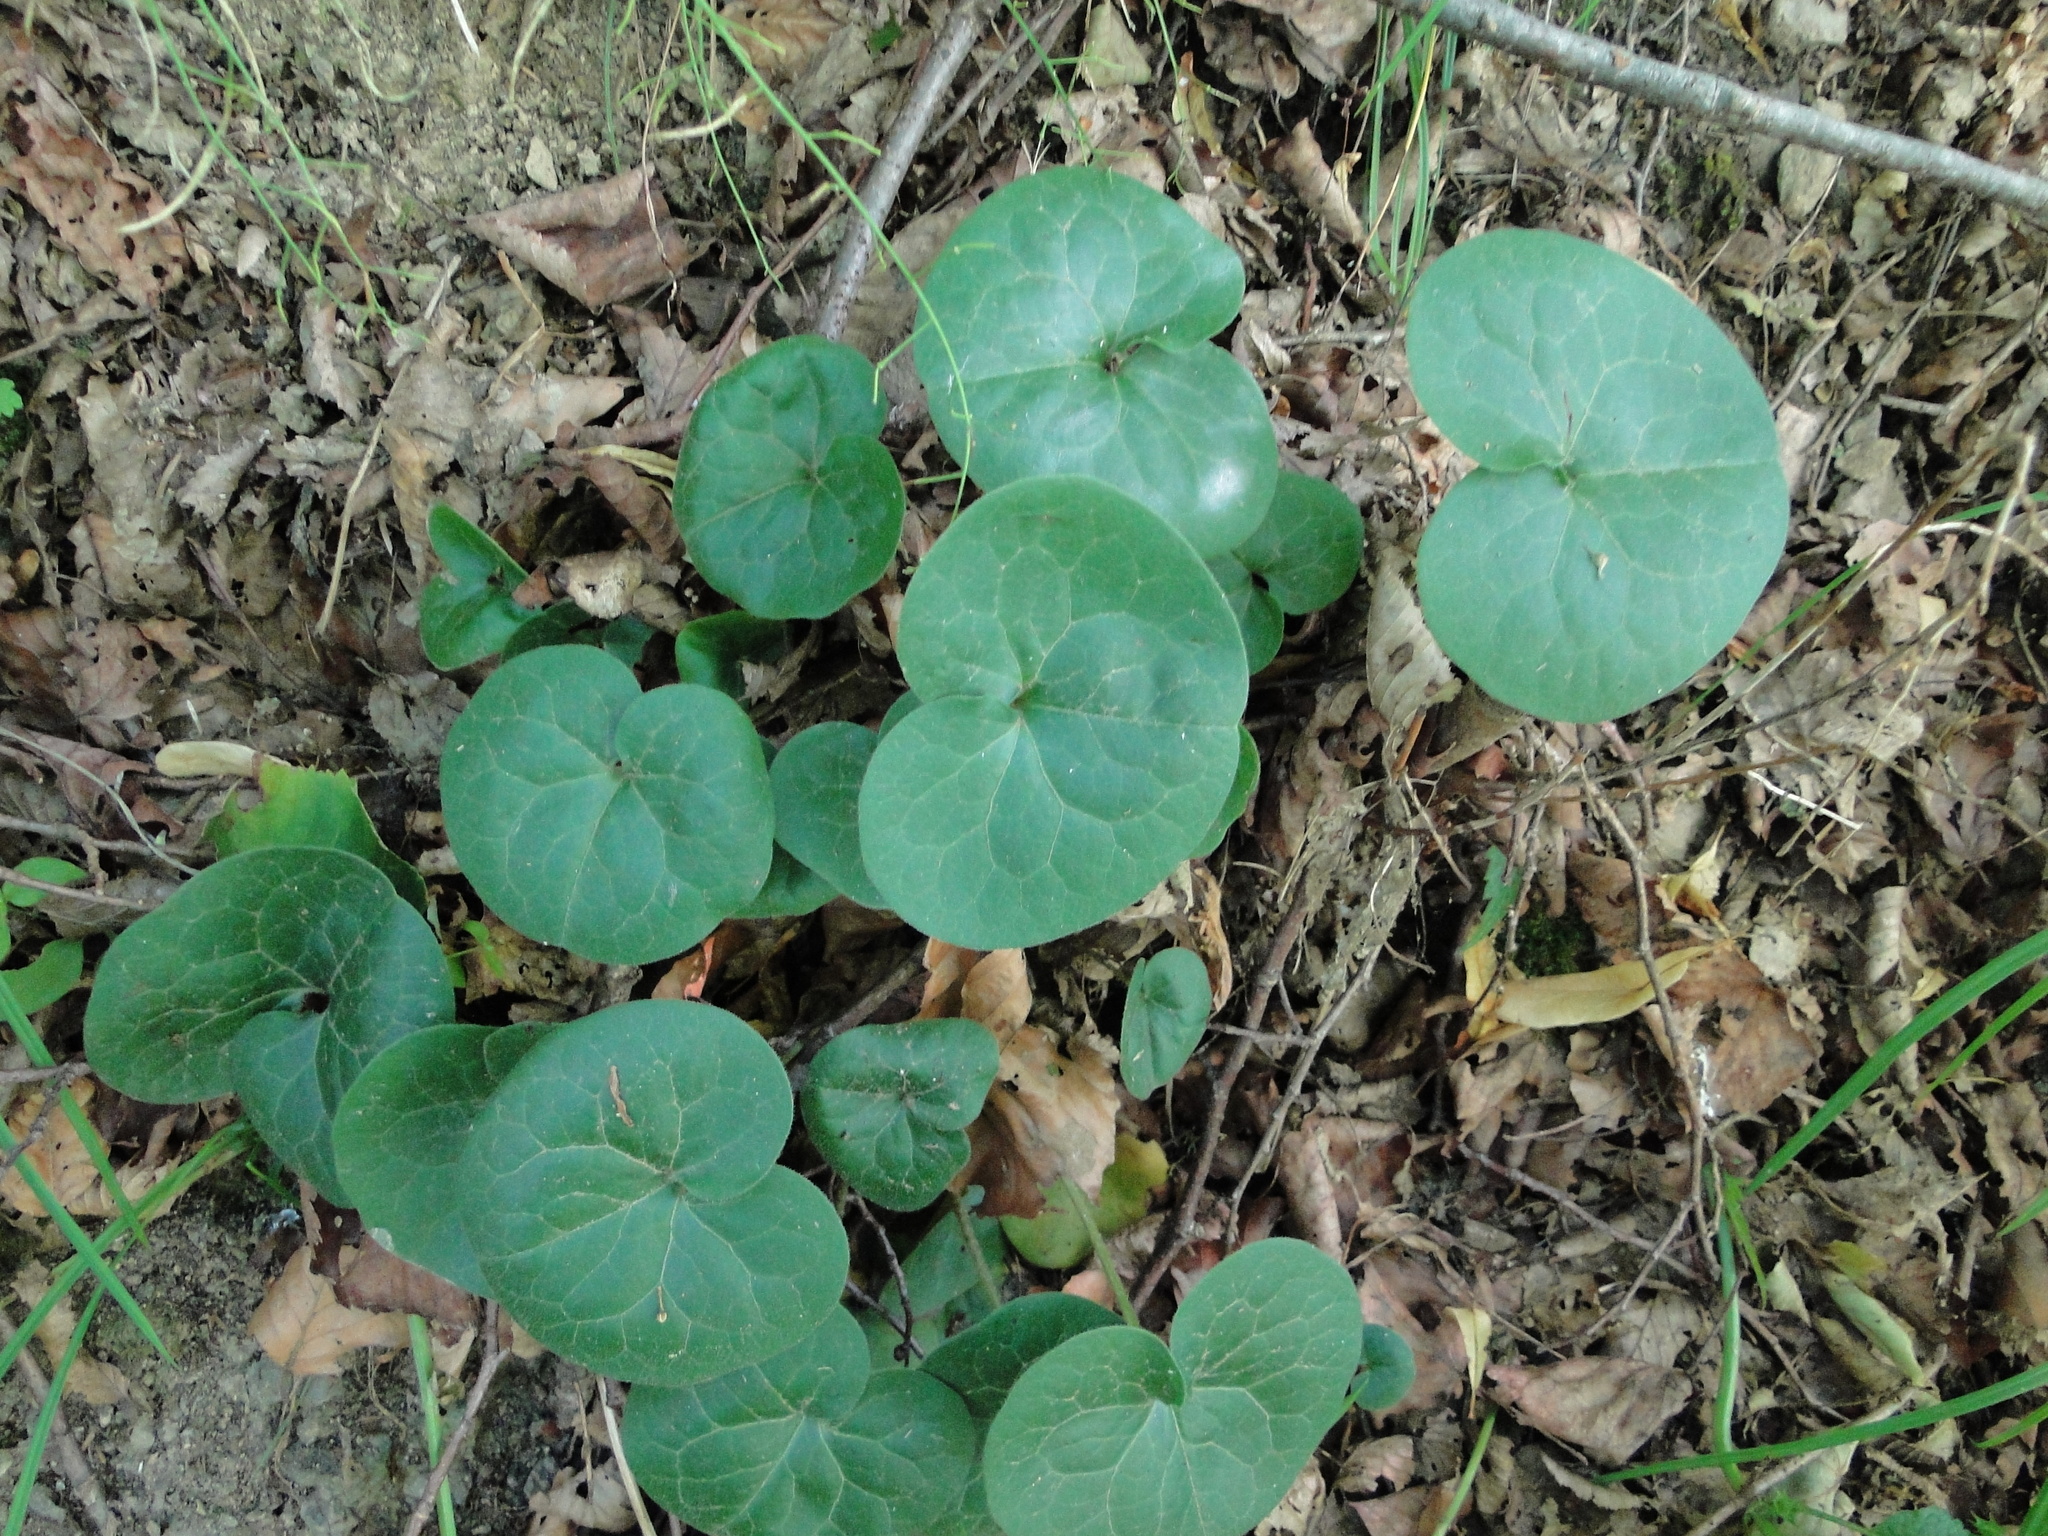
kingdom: Plantae
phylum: Tracheophyta
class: Magnoliopsida
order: Piperales
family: Aristolochiaceae
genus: Asarum
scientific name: Asarum europaeum
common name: Asarabacca
